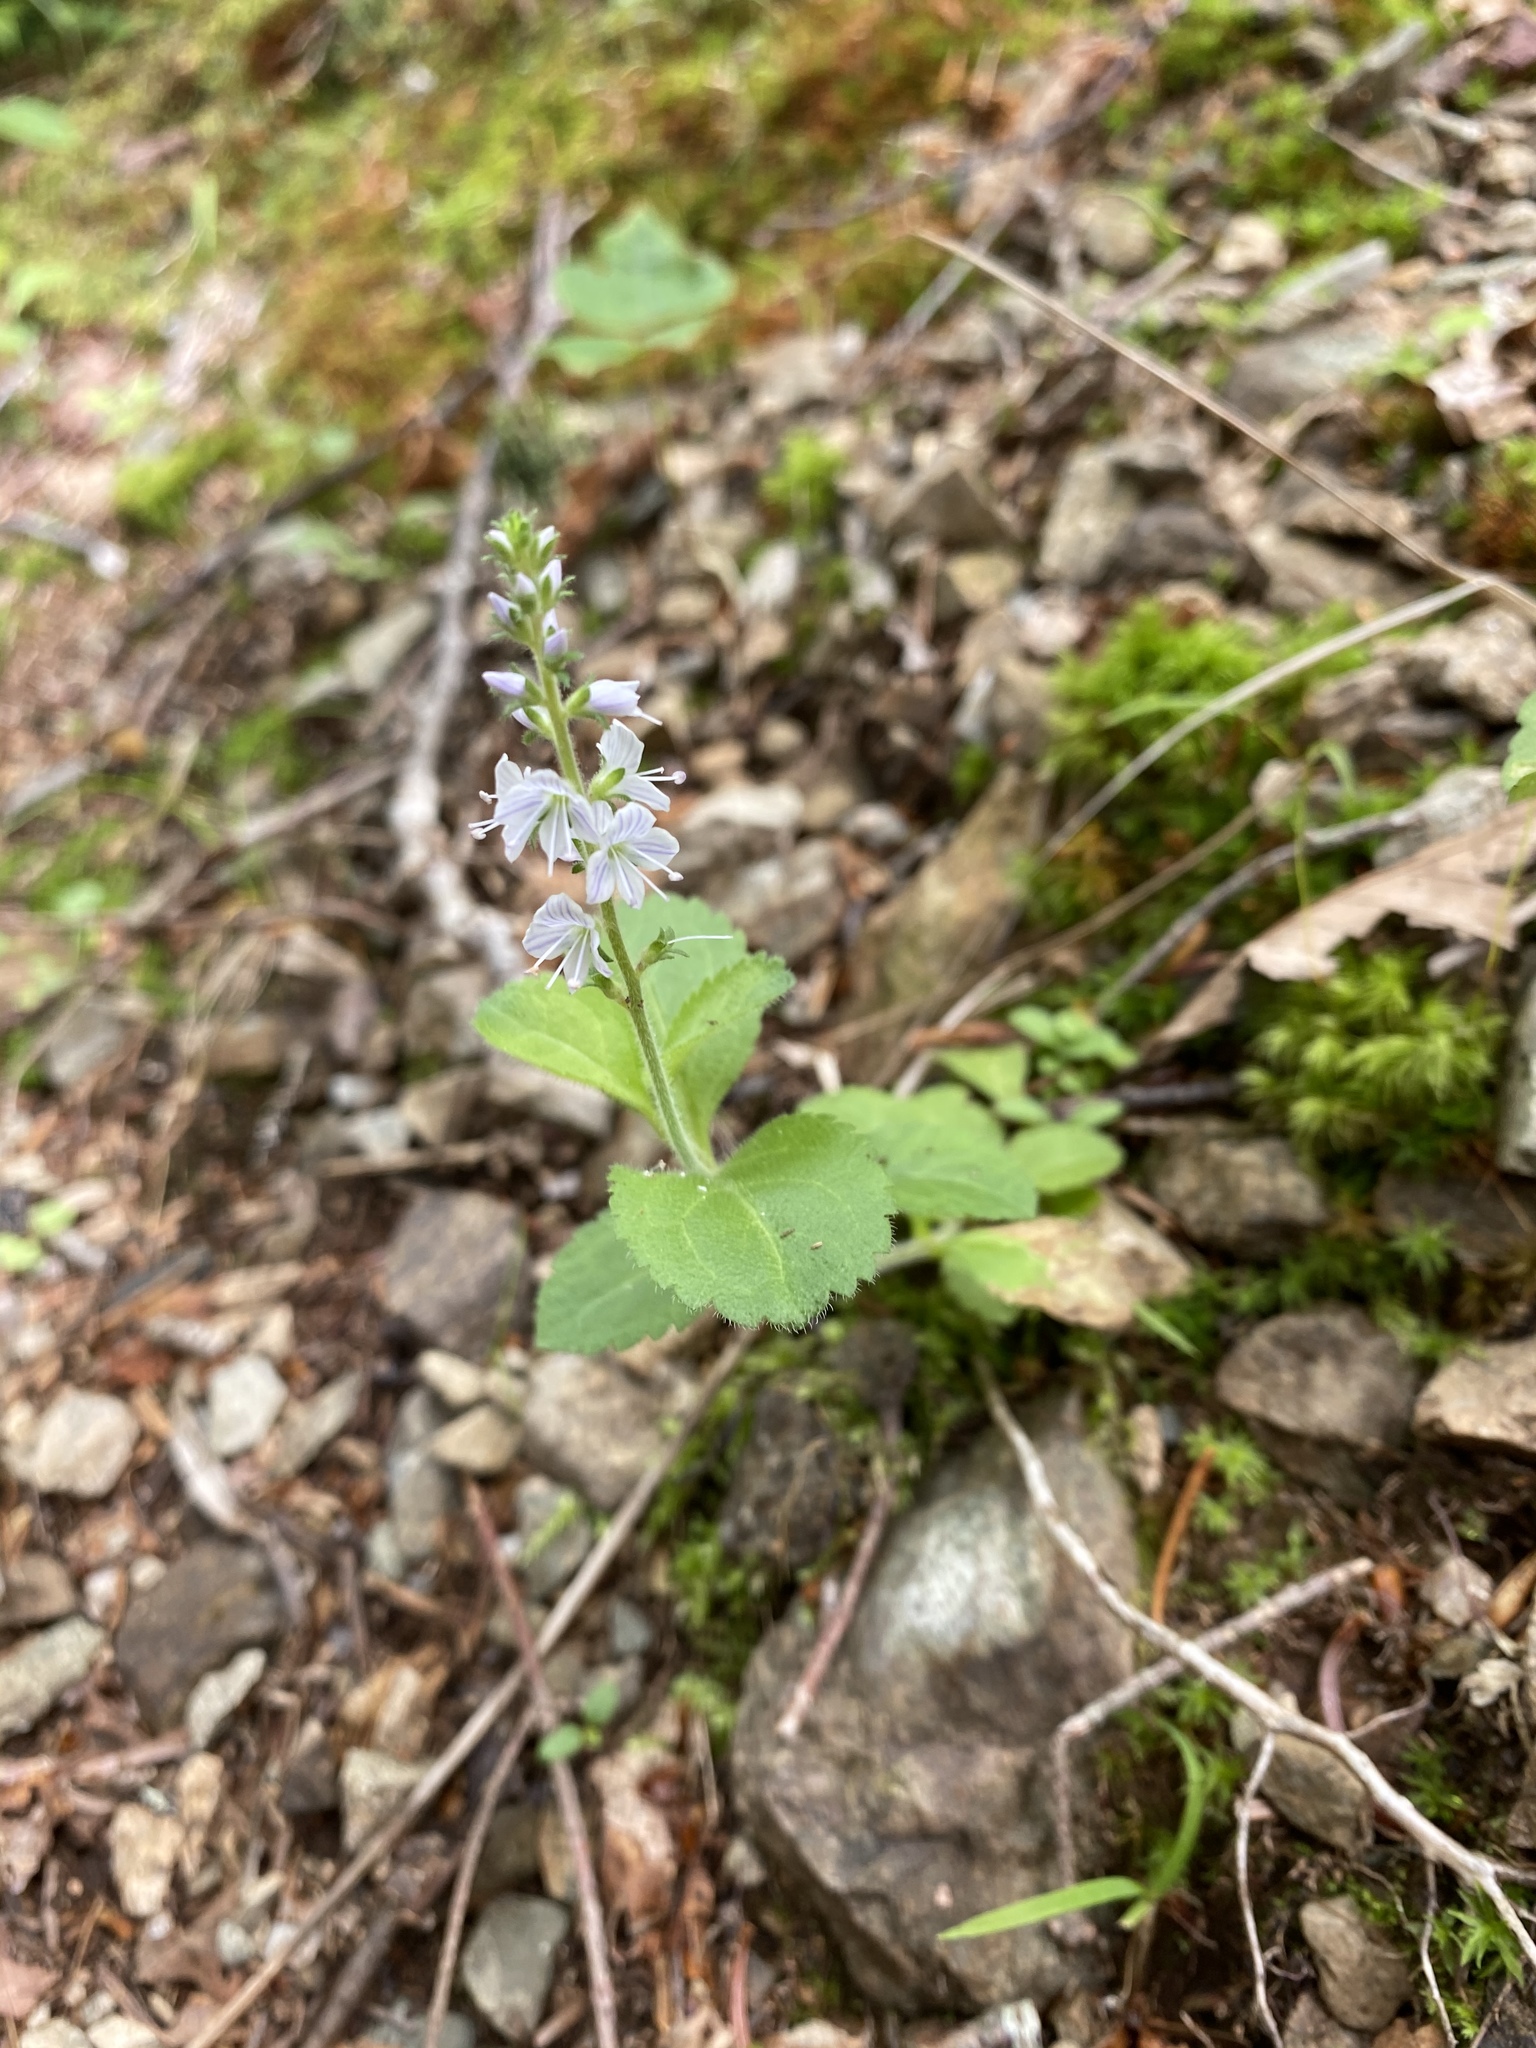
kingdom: Plantae
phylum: Tracheophyta
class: Magnoliopsida
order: Lamiales
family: Plantaginaceae
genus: Veronica
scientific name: Veronica officinalis
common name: Common speedwell
